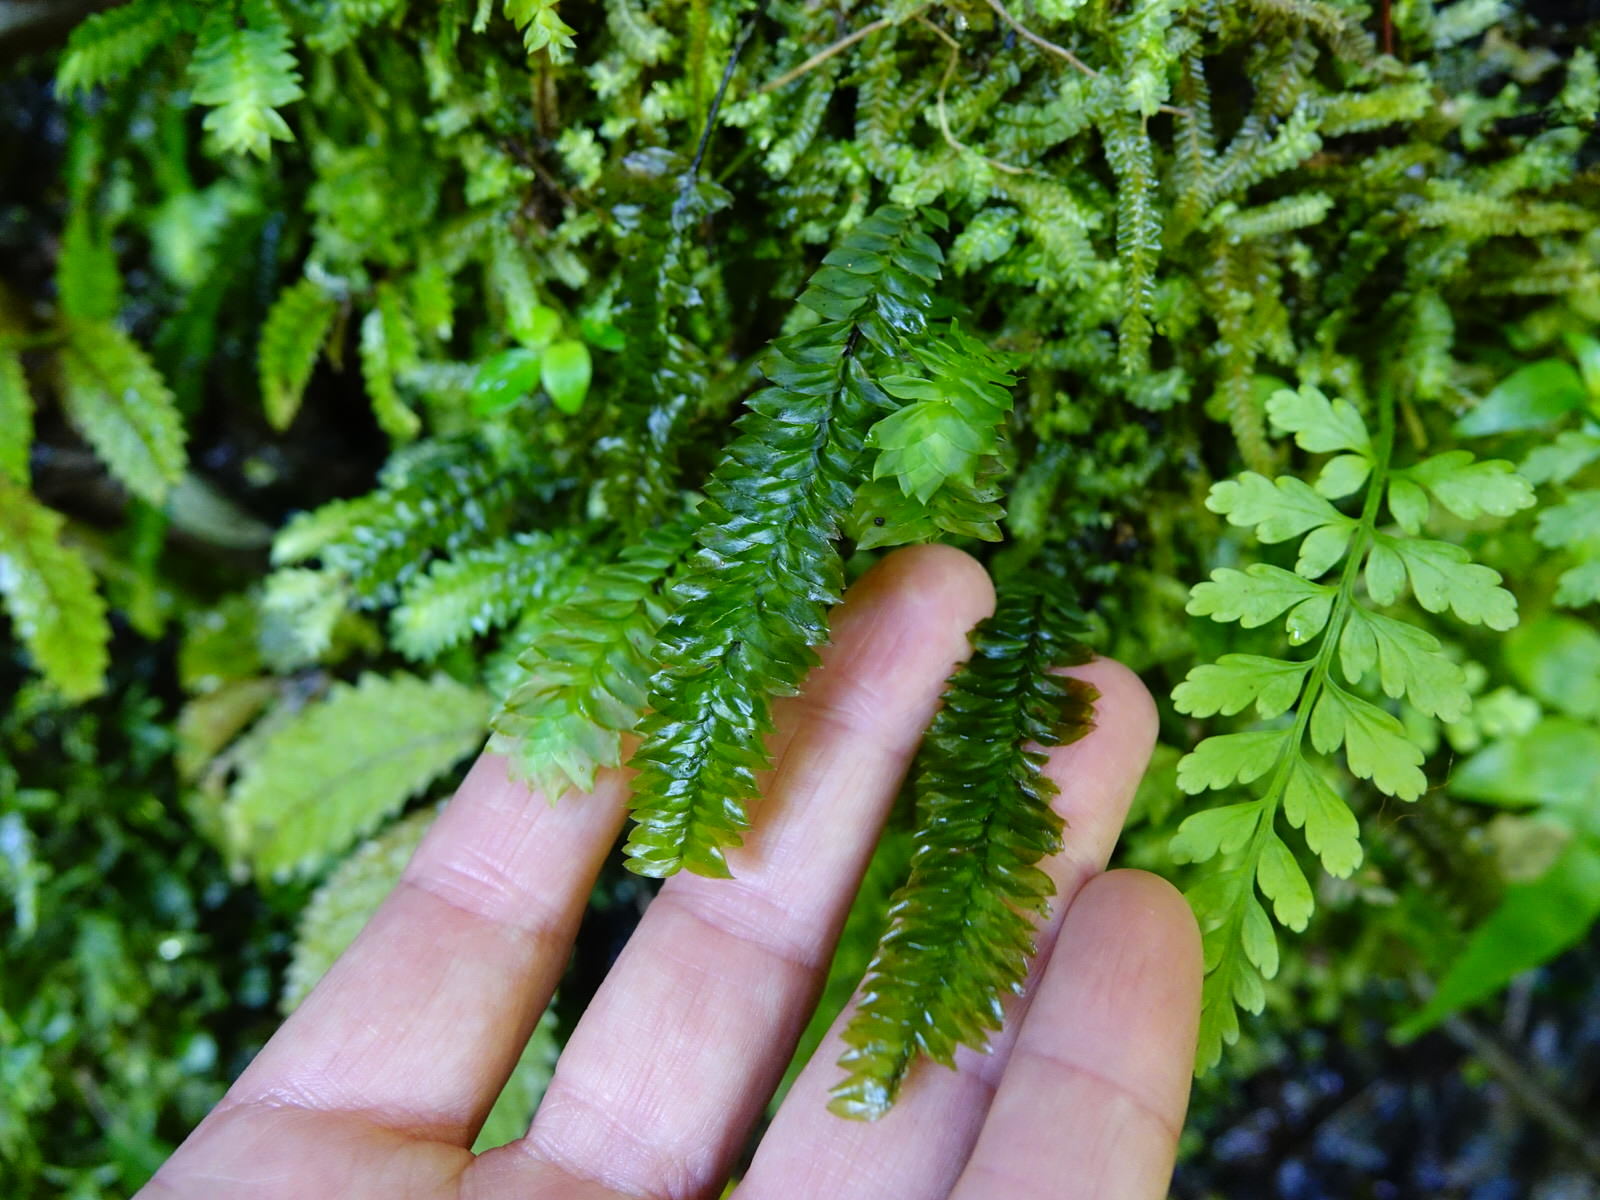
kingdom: Plantae
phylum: Bryophyta
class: Bryopsida
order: Hypopterygiales
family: Hypopterygiaceae
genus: Cyathophorum
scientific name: Cyathophorum bulbosum
